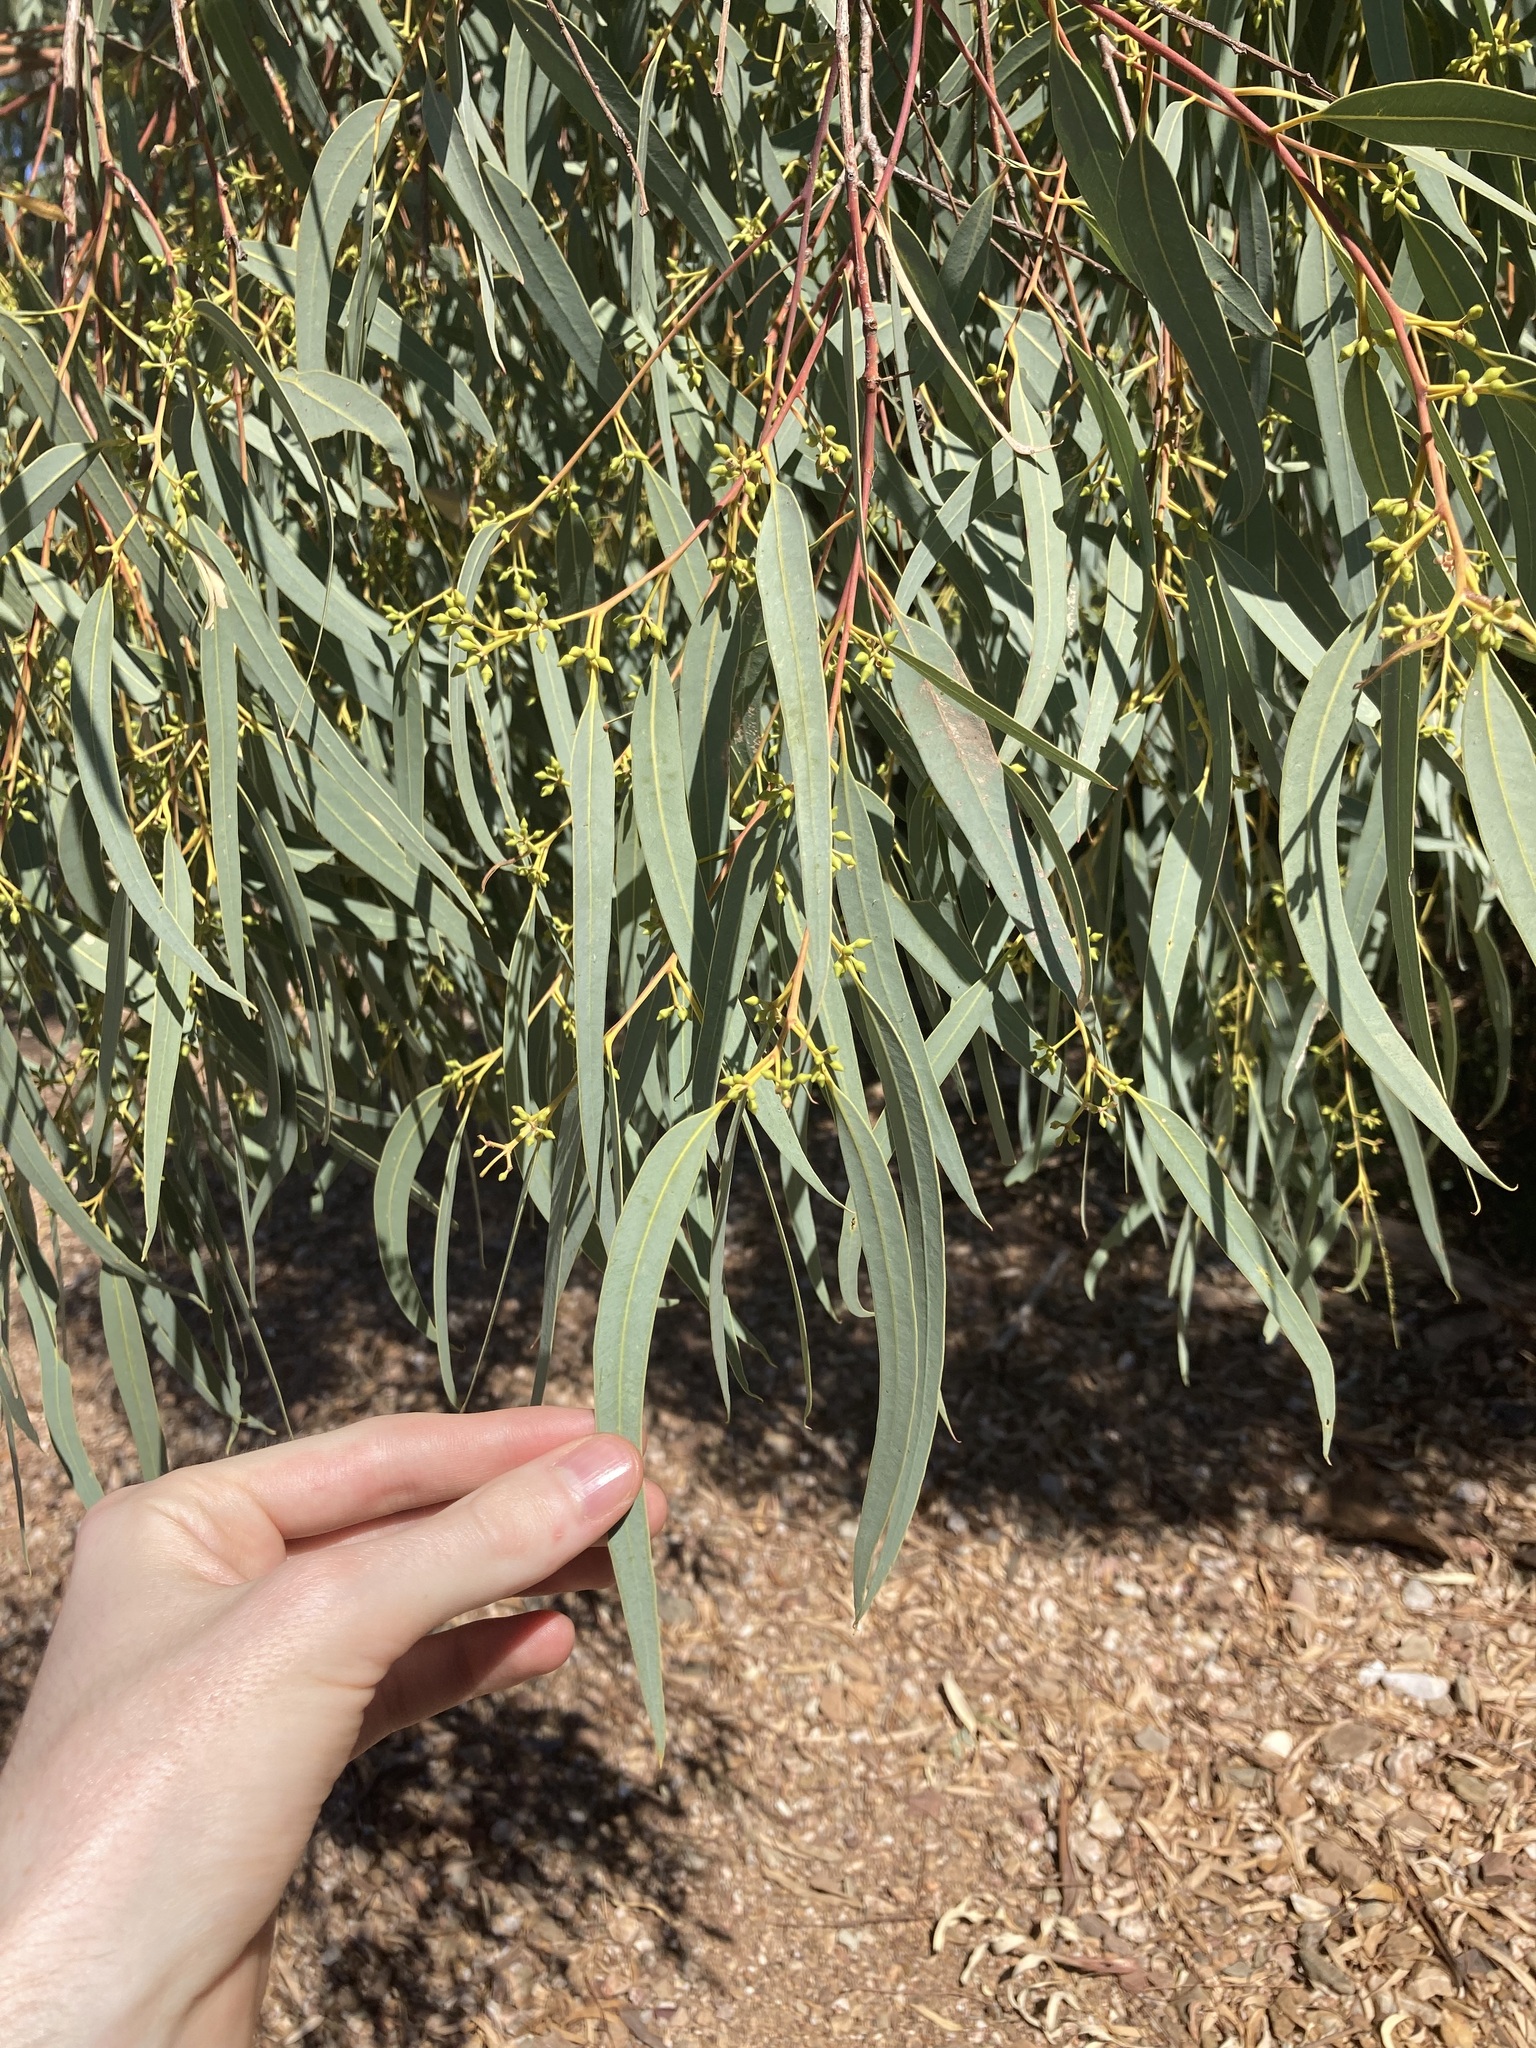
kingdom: Plantae
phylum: Tracheophyta
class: Magnoliopsida
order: Myrtales
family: Myrtaceae
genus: Eucalyptus
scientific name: Eucalyptus camaldulensis
